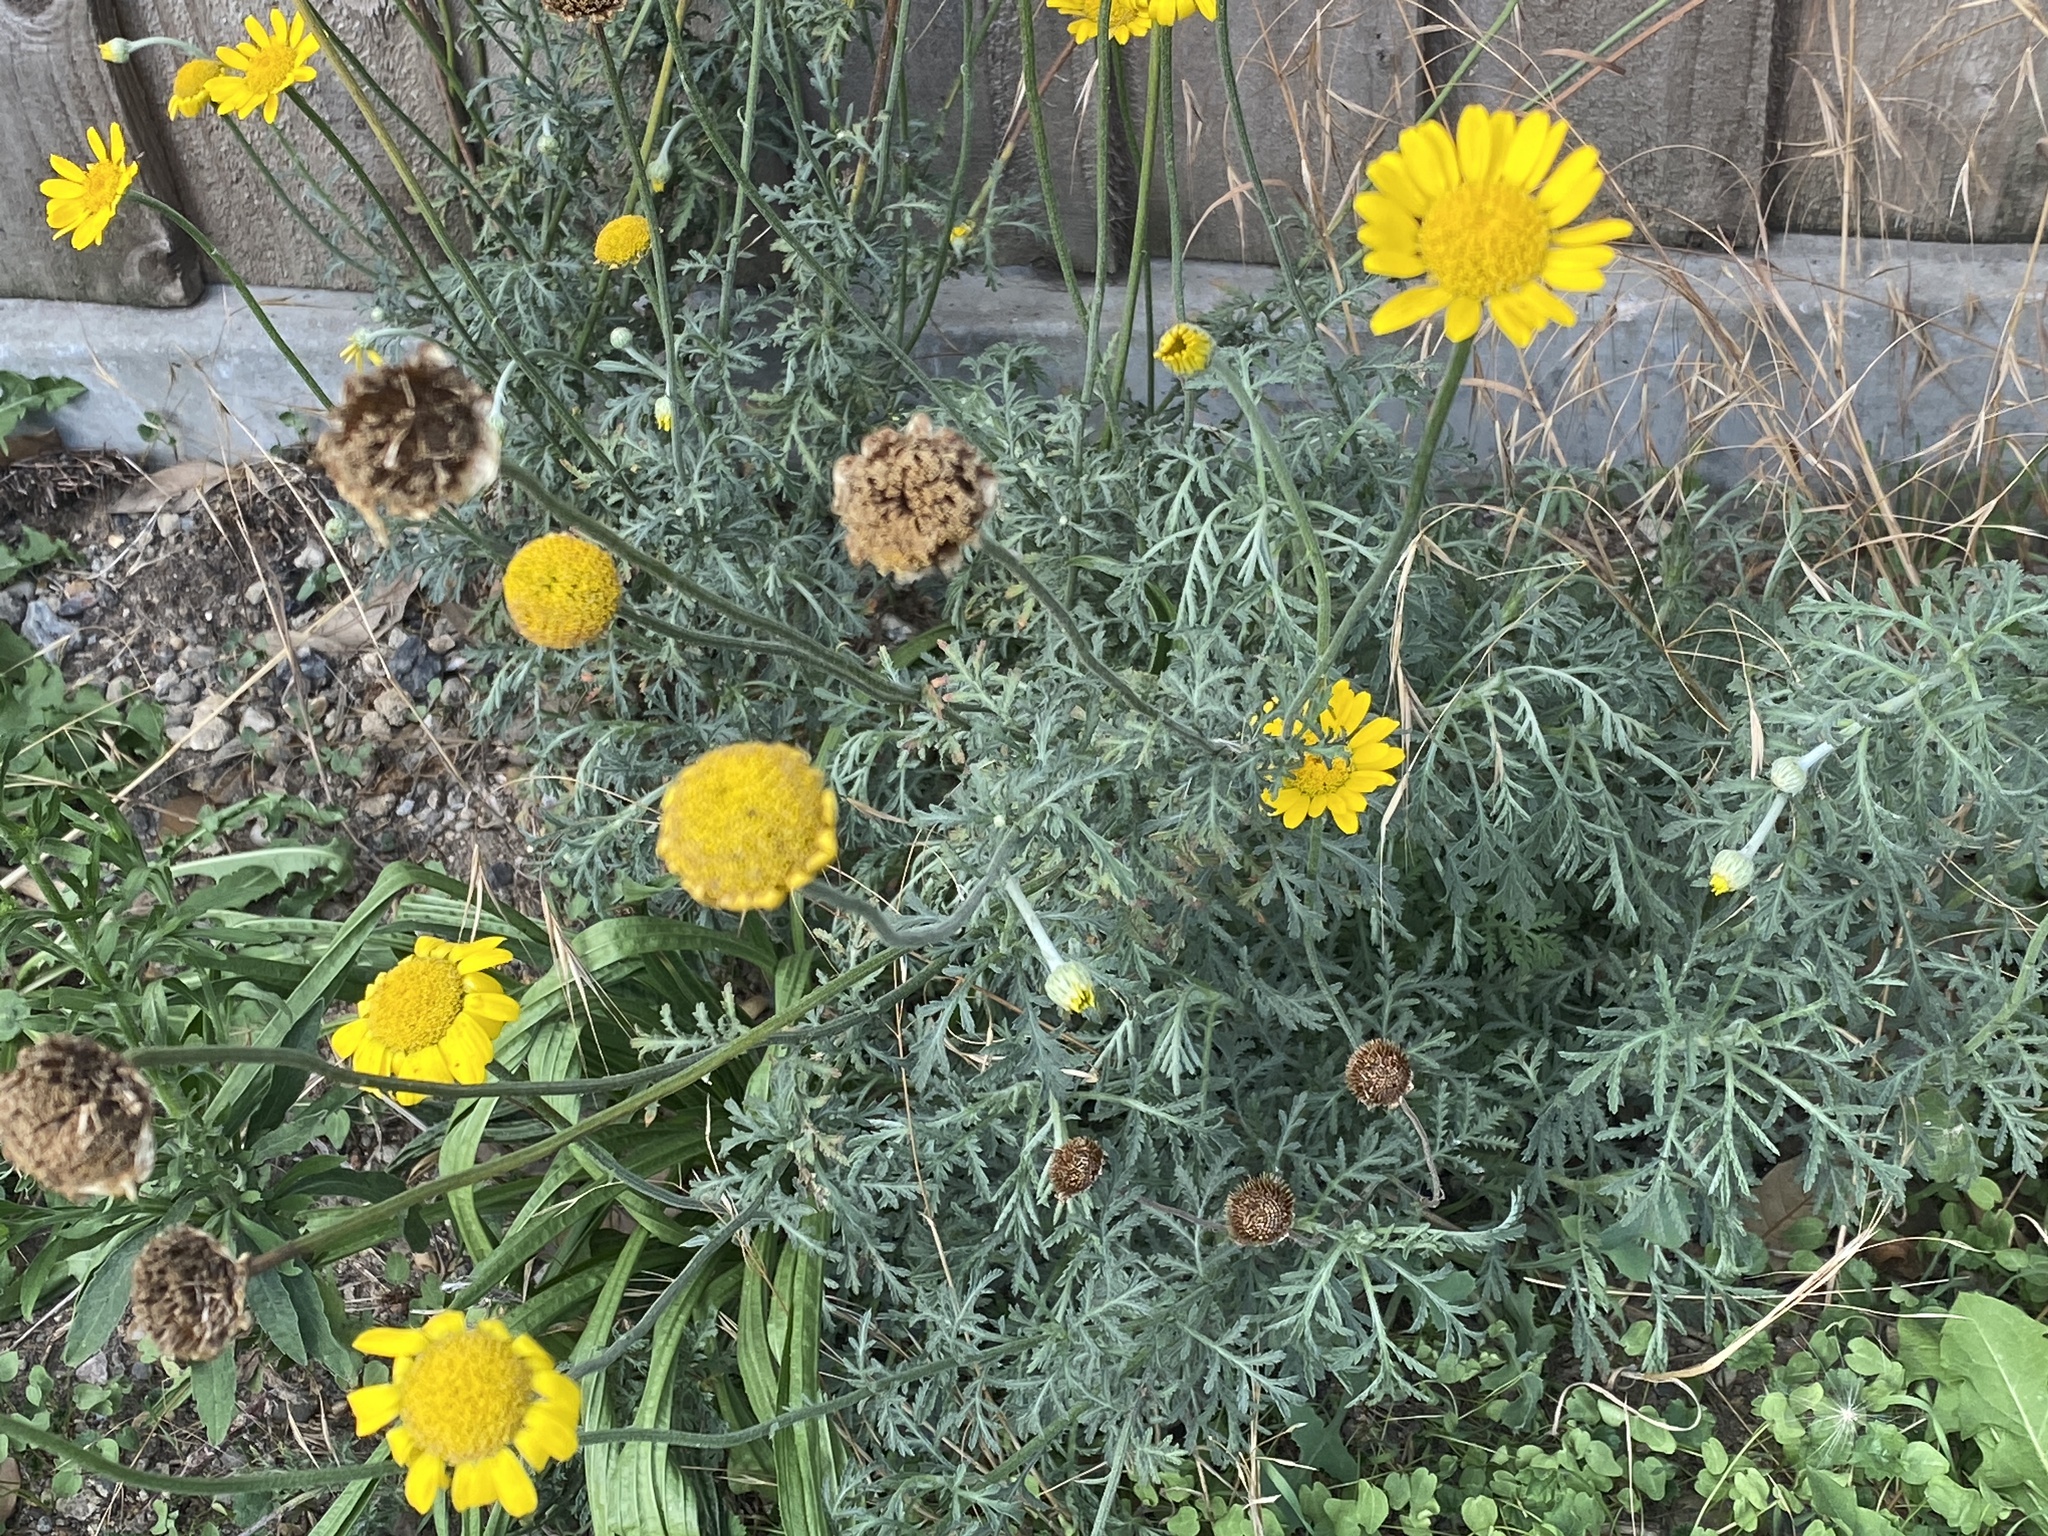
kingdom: Plantae
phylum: Tracheophyta
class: Magnoliopsida
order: Asterales
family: Asteraceae
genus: Cota
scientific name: Cota tinctoria
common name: Golden chamomile
